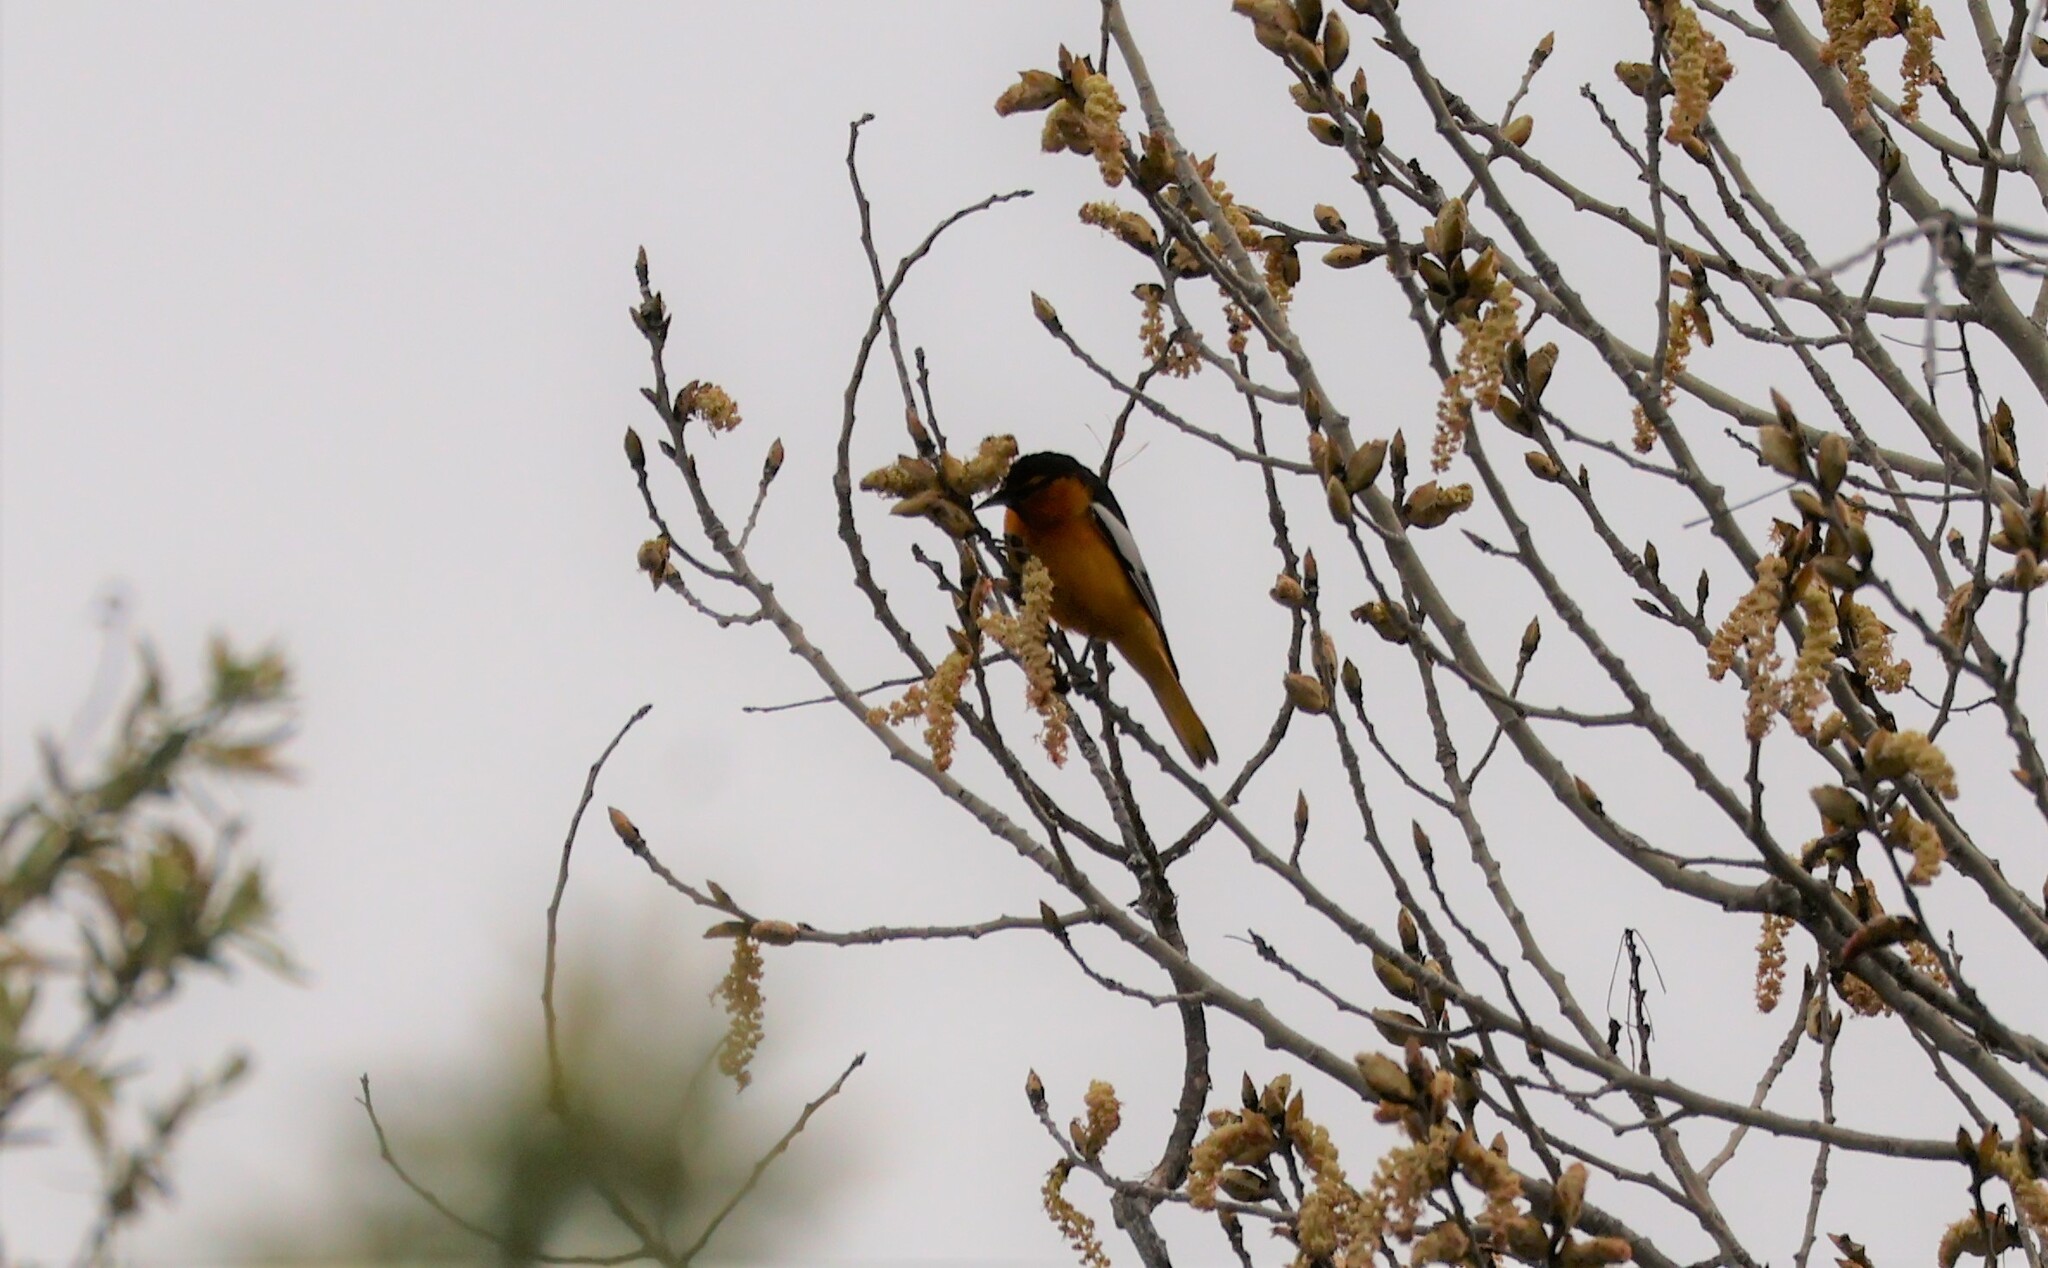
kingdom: Animalia
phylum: Chordata
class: Aves
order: Passeriformes
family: Icteridae
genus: Icterus
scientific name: Icterus bullockii
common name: Bullock's oriole
